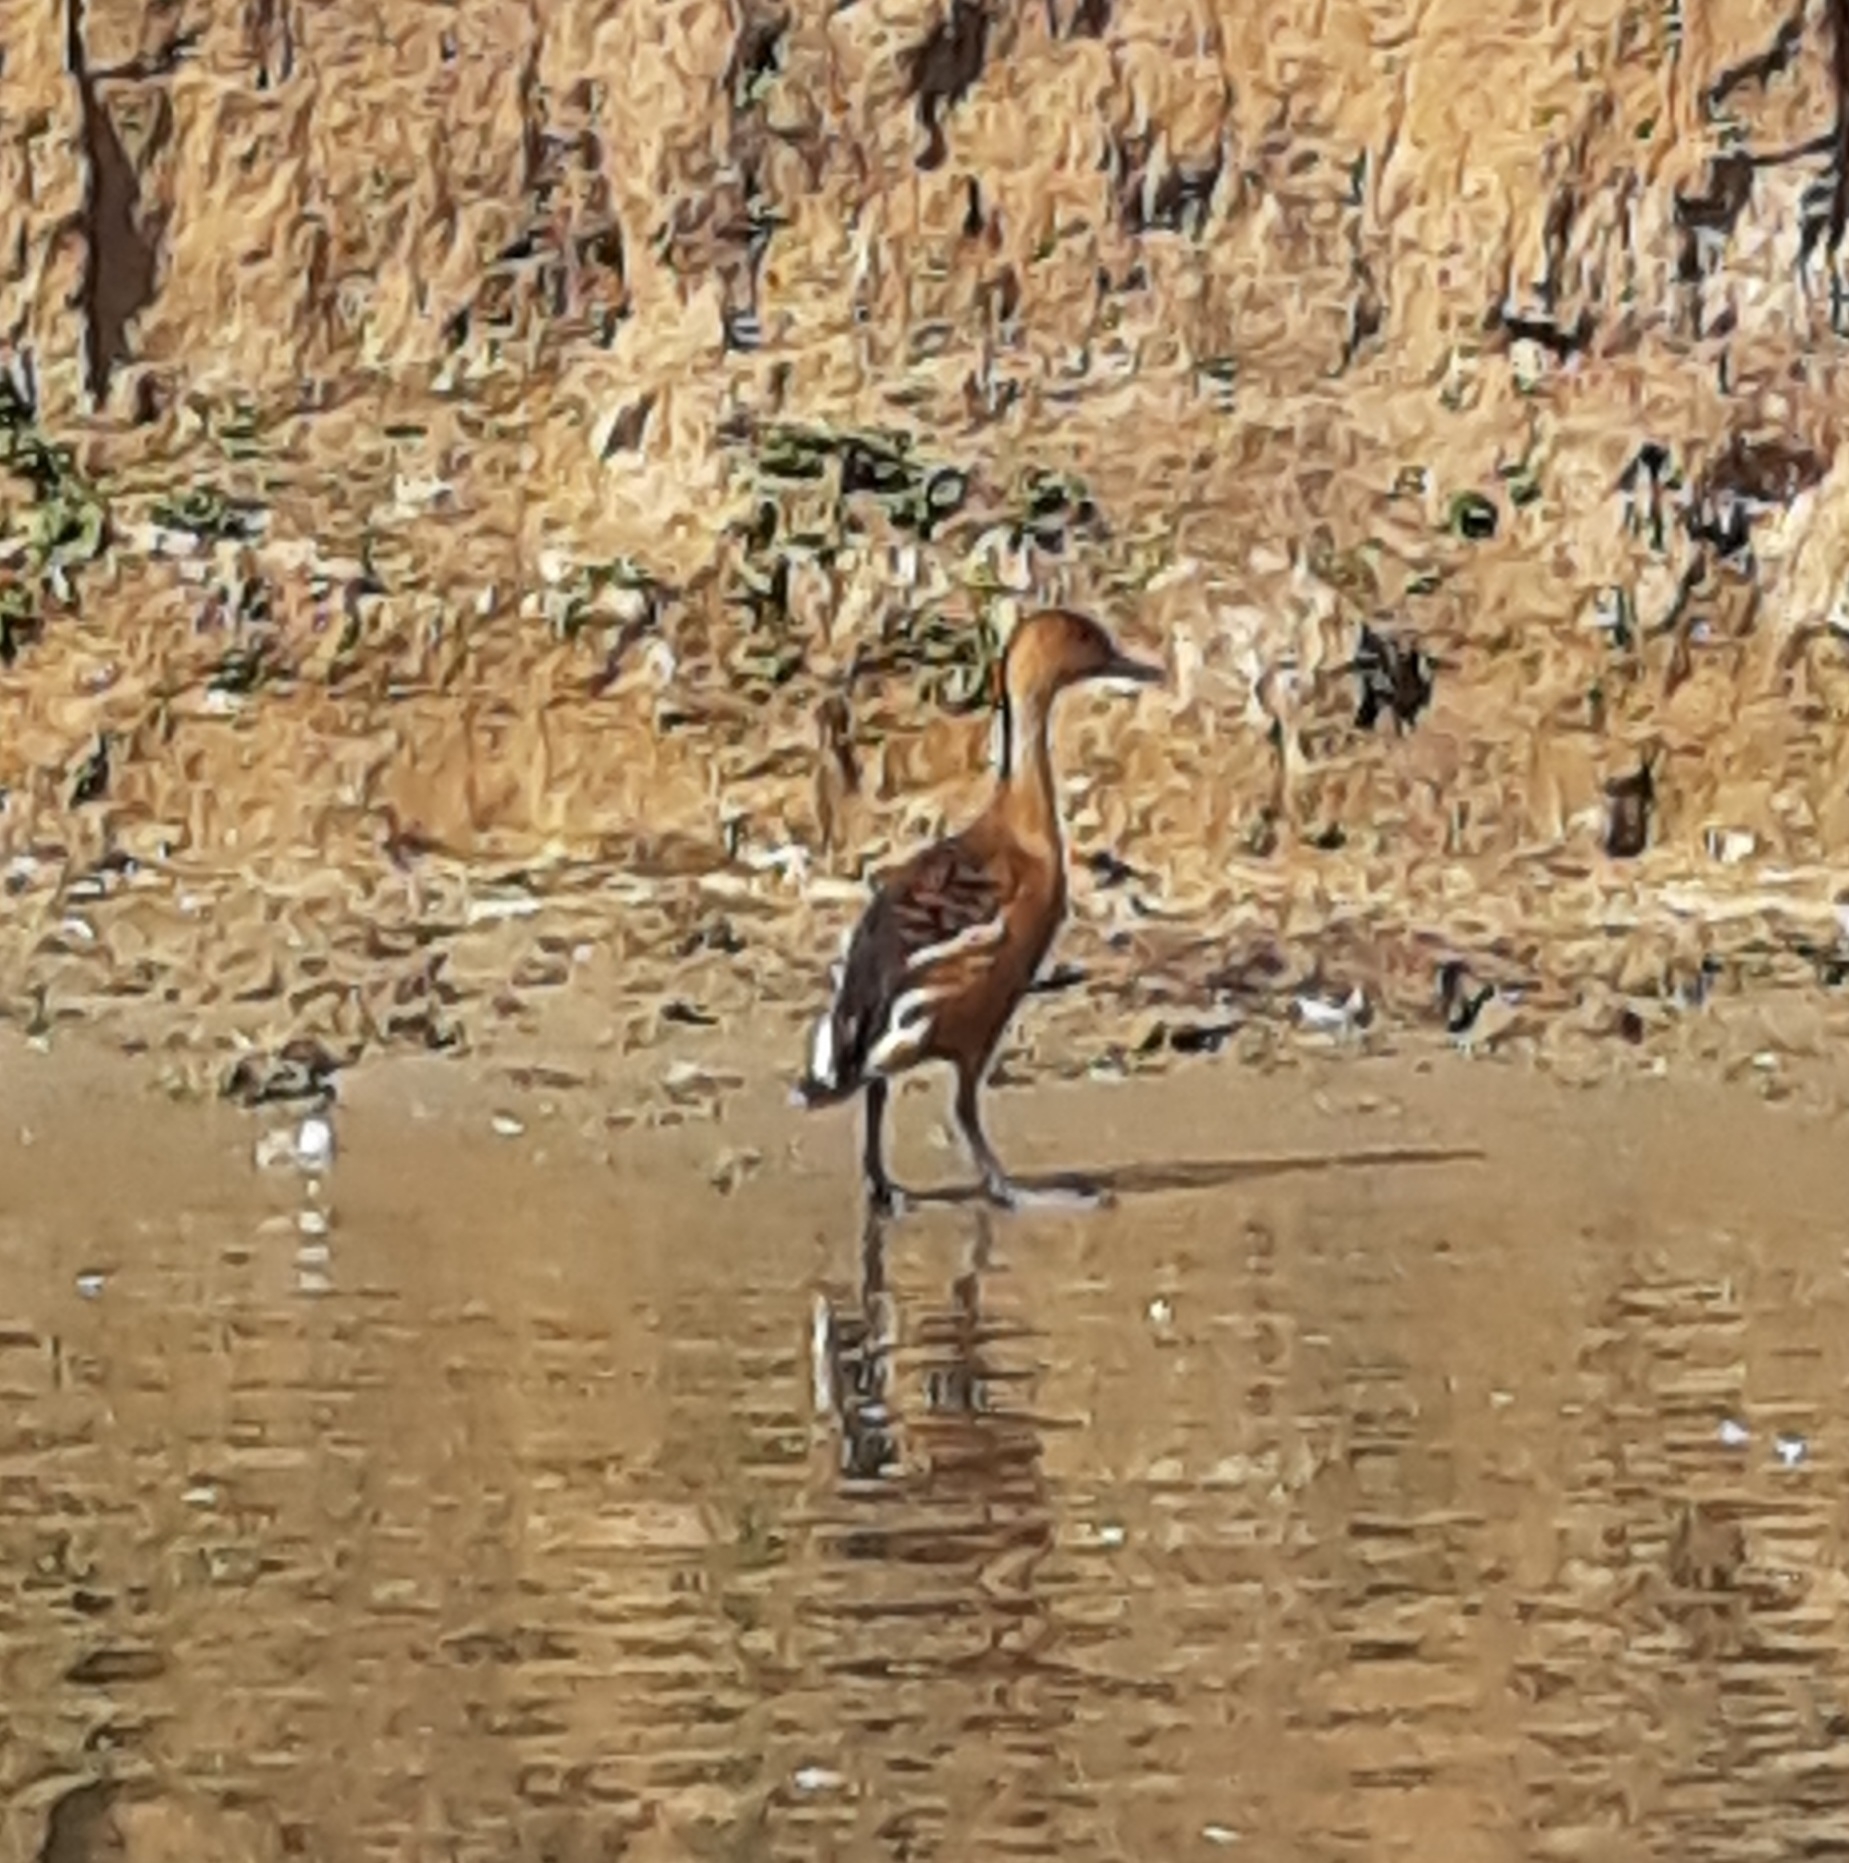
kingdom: Animalia
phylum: Chordata
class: Aves
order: Anseriformes
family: Anatidae
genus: Dendrocygna
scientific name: Dendrocygna bicolor
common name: Fulvous whistling duck
